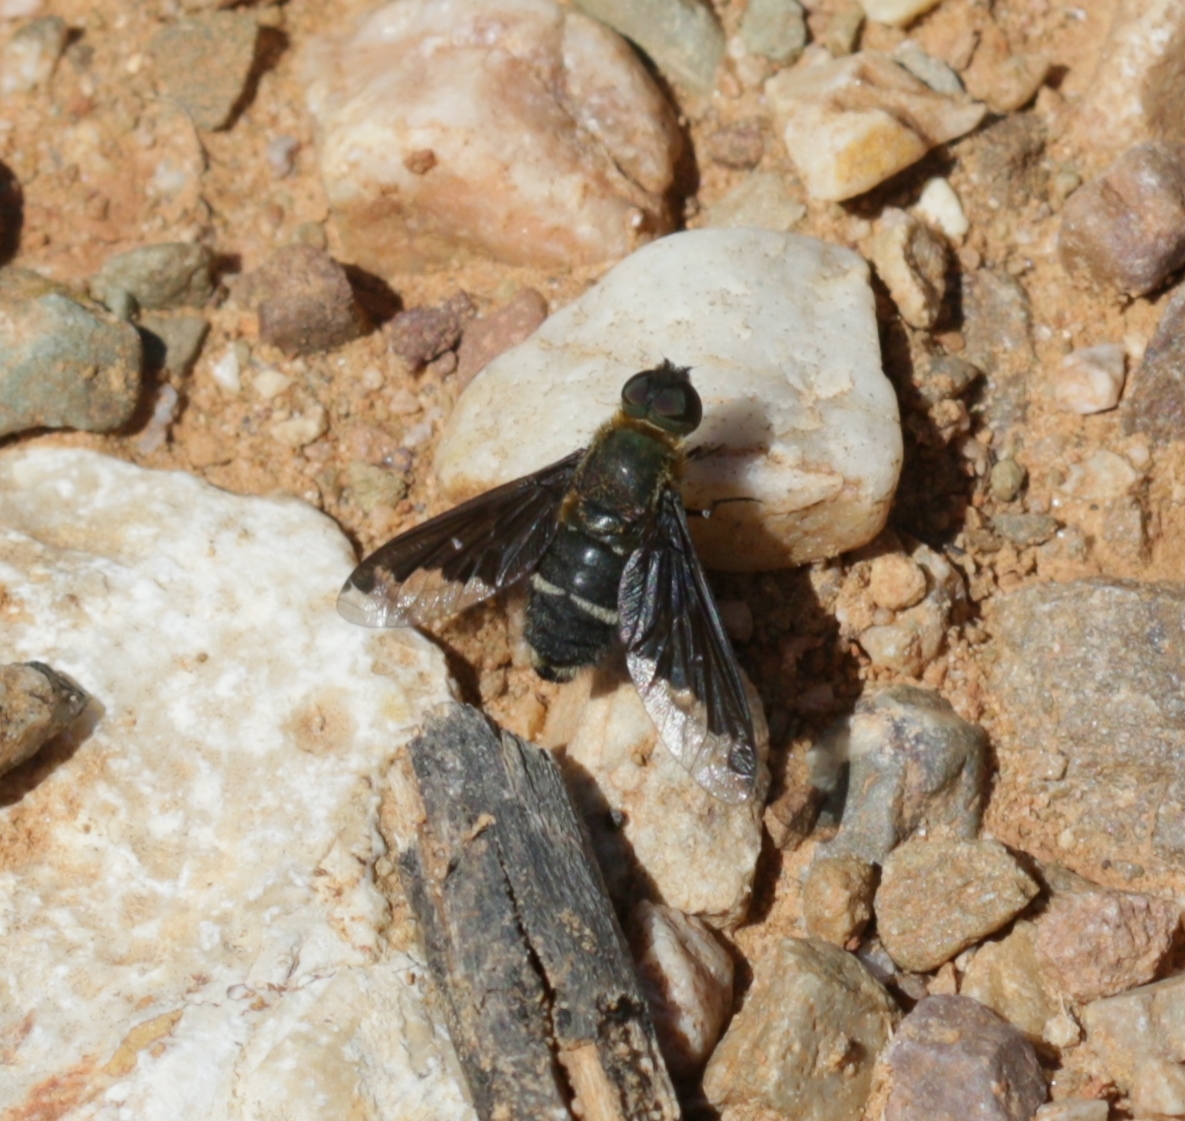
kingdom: Animalia
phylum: Arthropoda
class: Insecta
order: Diptera
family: Bombyliidae
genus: Hemipenthes
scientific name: Hemipenthes velutina
